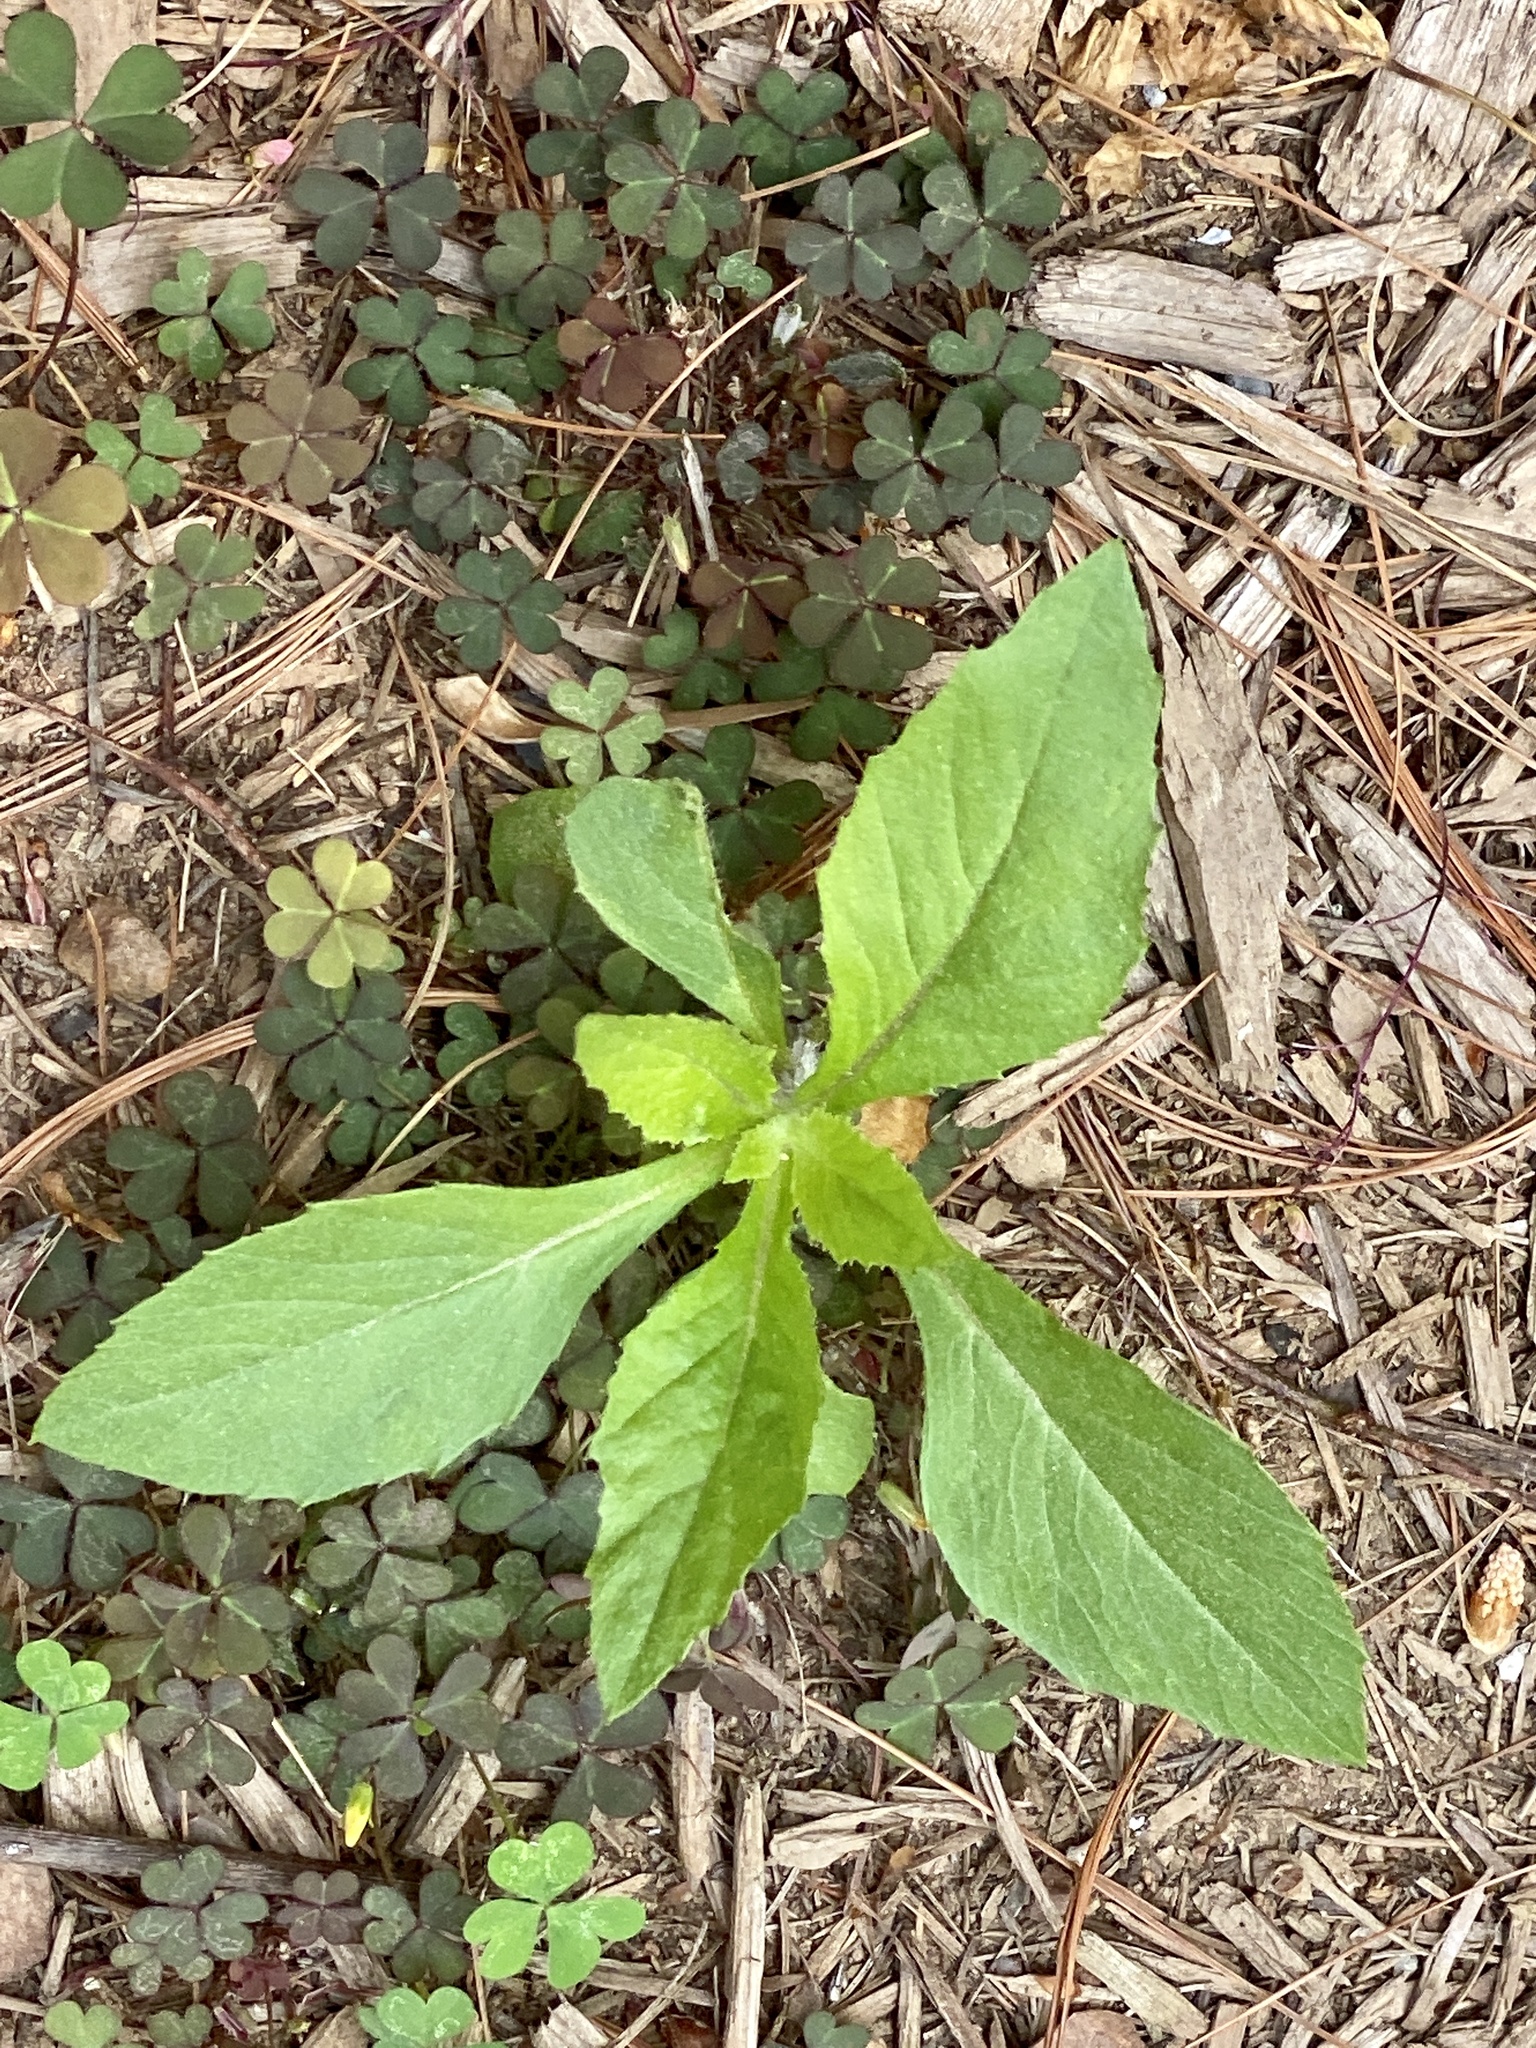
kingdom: Plantae
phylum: Tracheophyta
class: Magnoliopsida
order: Asterales
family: Asteraceae
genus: Erechtites
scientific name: Erechtites hieraciifolius
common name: American burnweed
